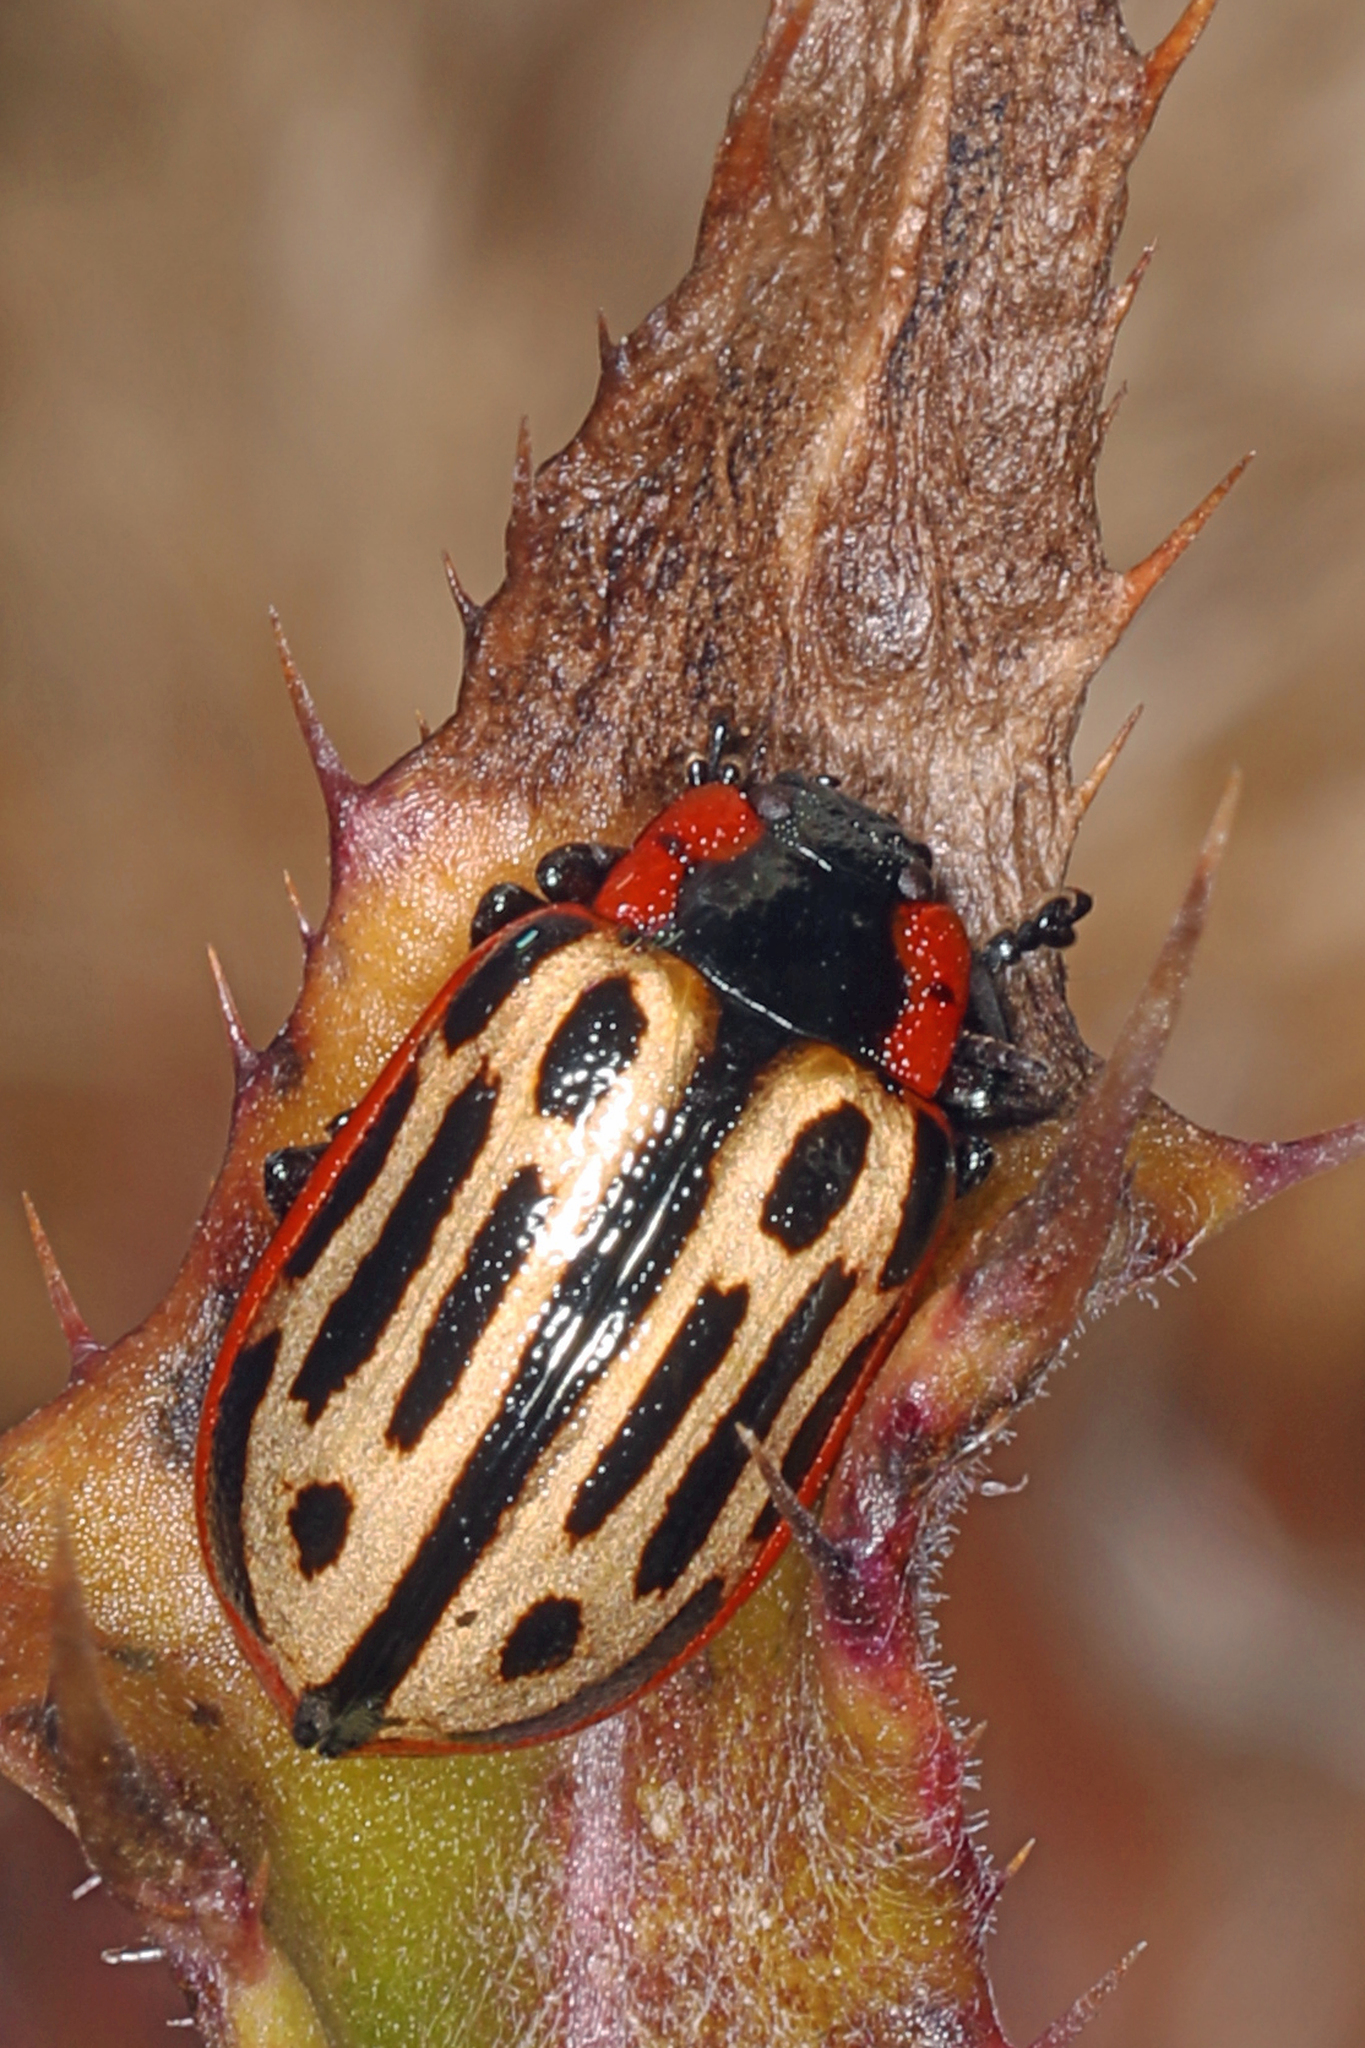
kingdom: Animalia
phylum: Arthropoda
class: Insecta
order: Coleoptera
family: Chrysomelidae
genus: Aethiopocassis
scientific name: Aethiopocassis scripta
